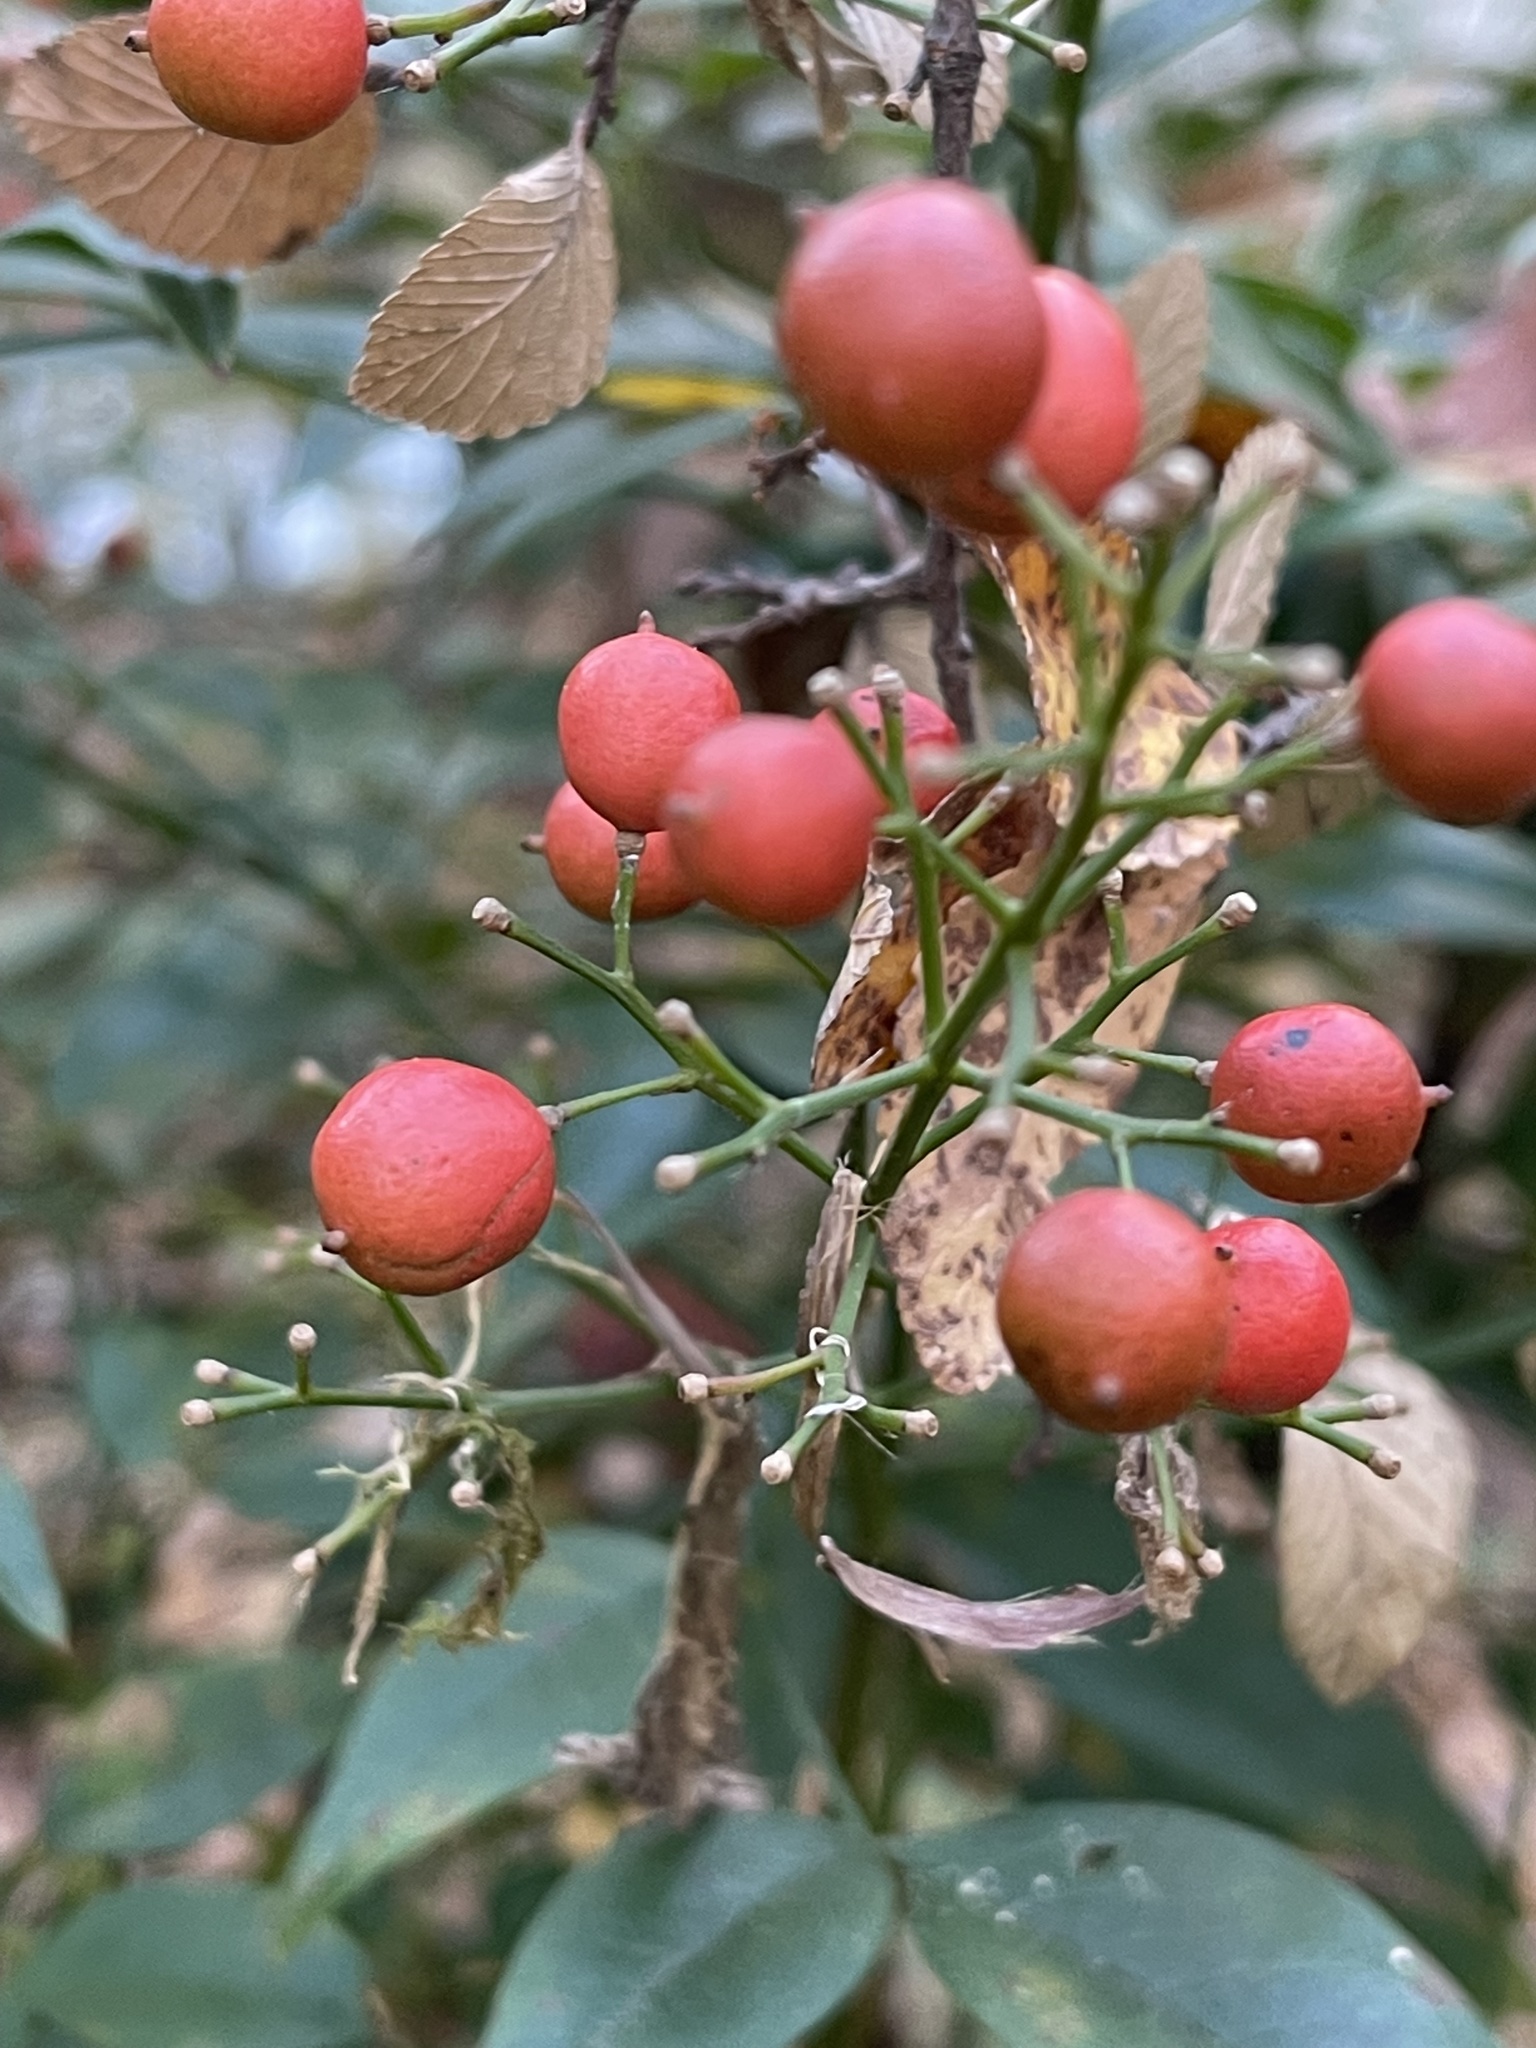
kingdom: Plantae
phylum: Tracheophyta
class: Magnoliopsida
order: Ranunculales
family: Berberidaceae
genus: Nandina
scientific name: Nandina domestica
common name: Sacred bamboo
